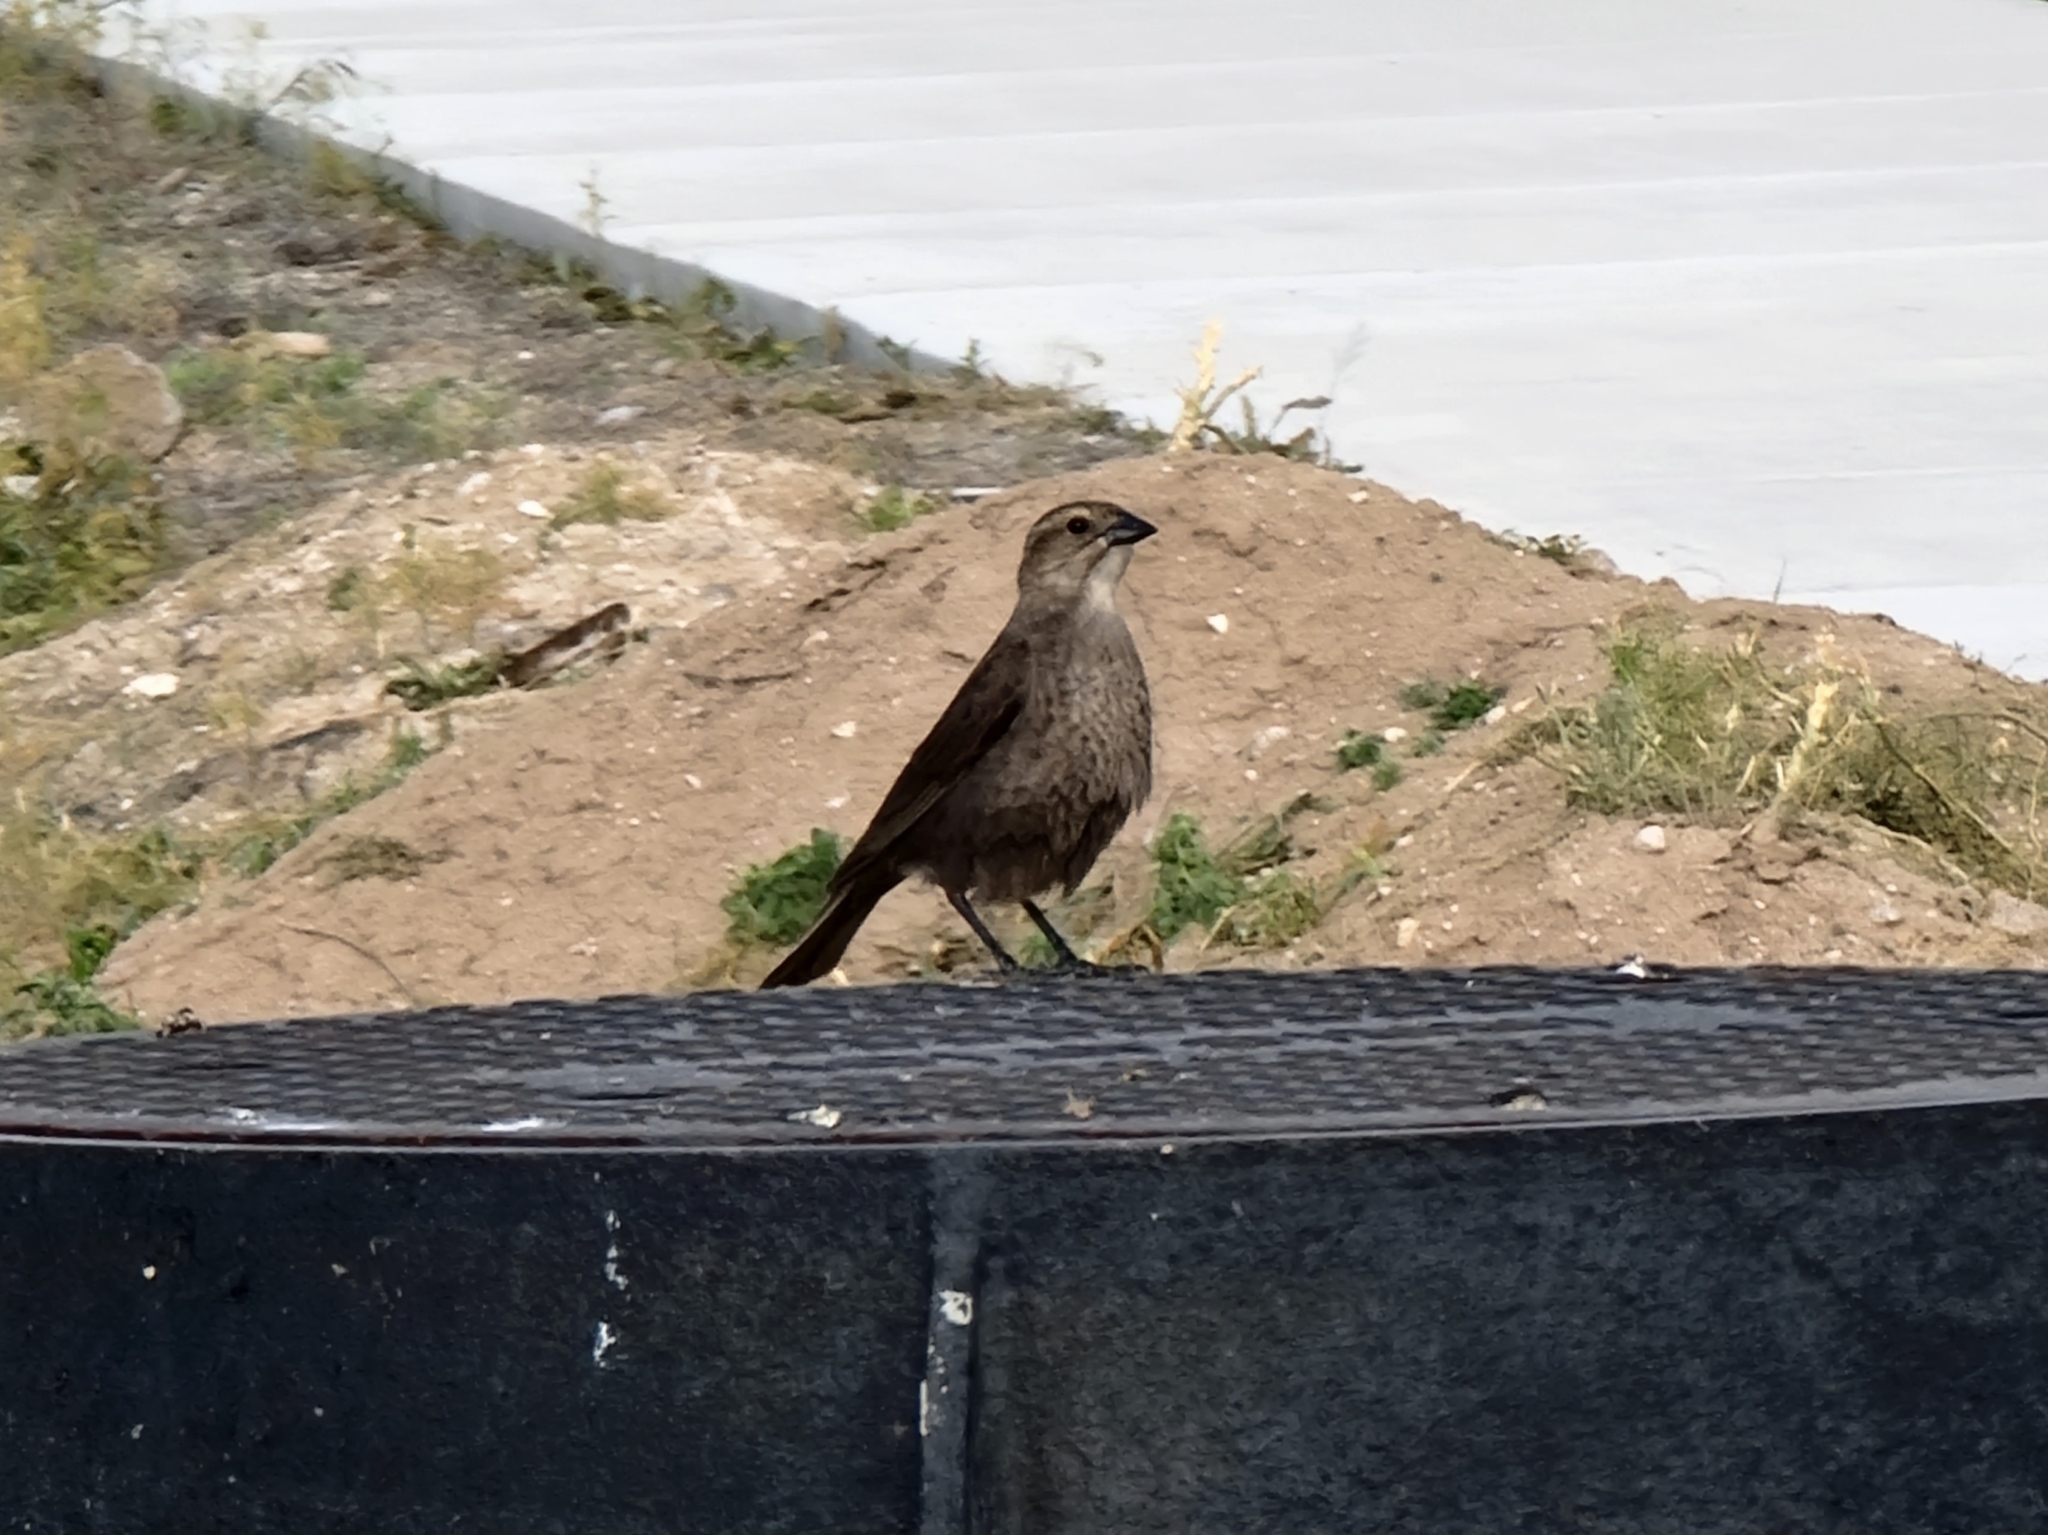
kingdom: Animalia
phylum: Chordata
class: Aves
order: Passeriformes
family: Icteridae
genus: Molothrus
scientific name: Molothrus ater
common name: Brown-headed cowbird
